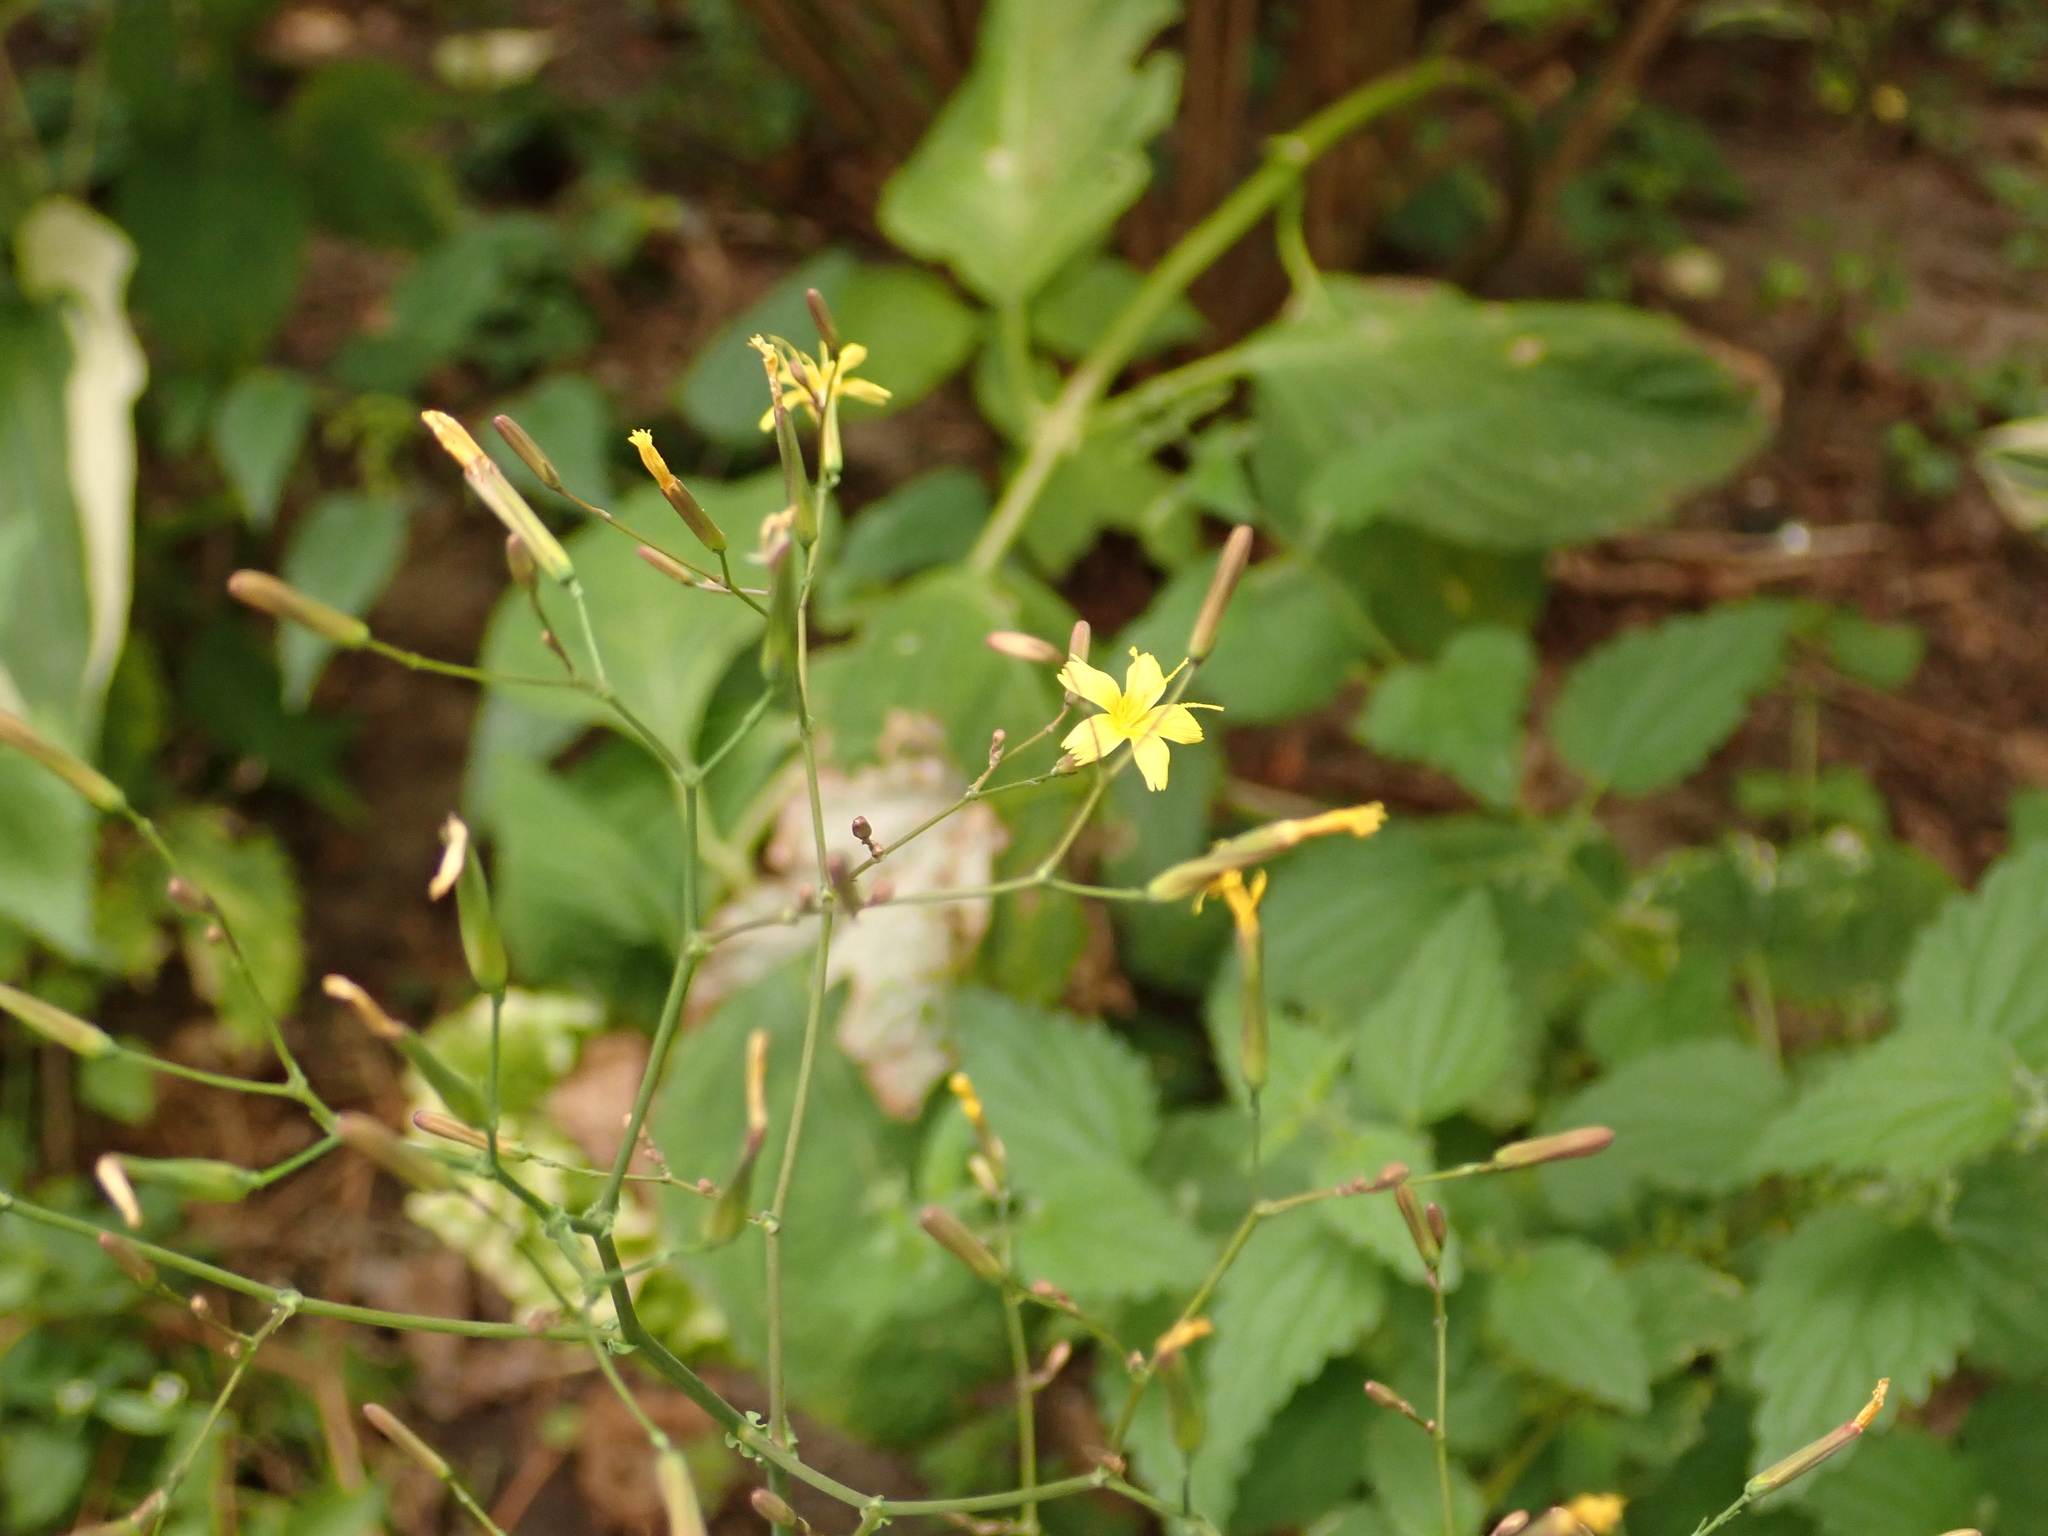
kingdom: Plantae
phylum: Tracheophyta
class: Magnoliopsida
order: Asterales
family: Asteraceae
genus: Mycelis
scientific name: Mycelis muralis
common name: Wall lettuce
